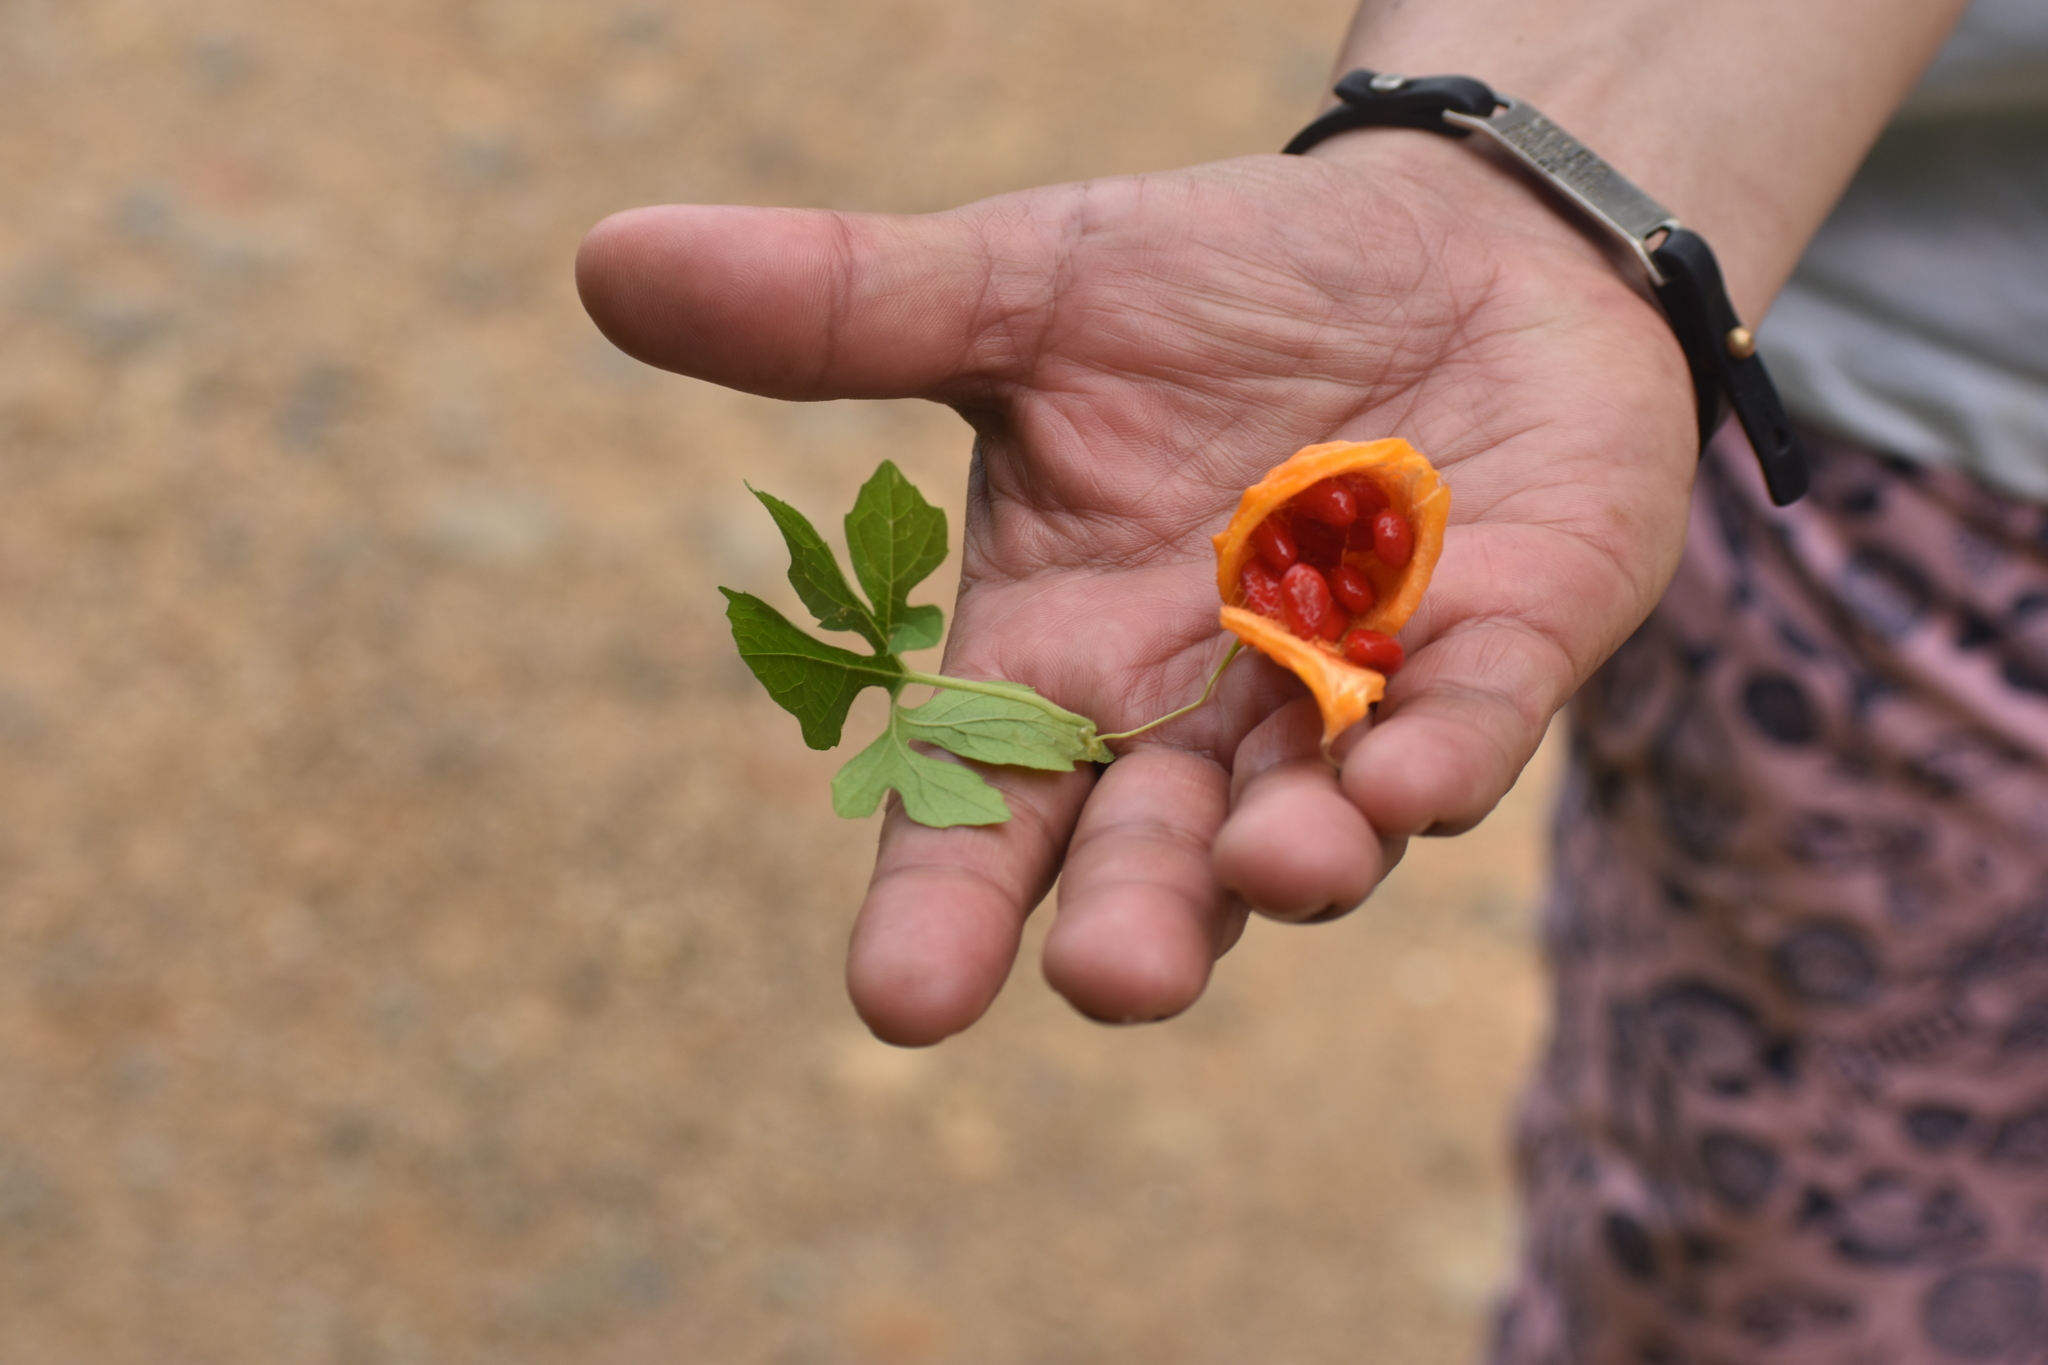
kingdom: Plantae
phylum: Tracheophyta
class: Magnoliopsida
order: Cucurbitales
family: Cucurbitaceae
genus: Momordica
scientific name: Momordica charantia
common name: Balsampear
